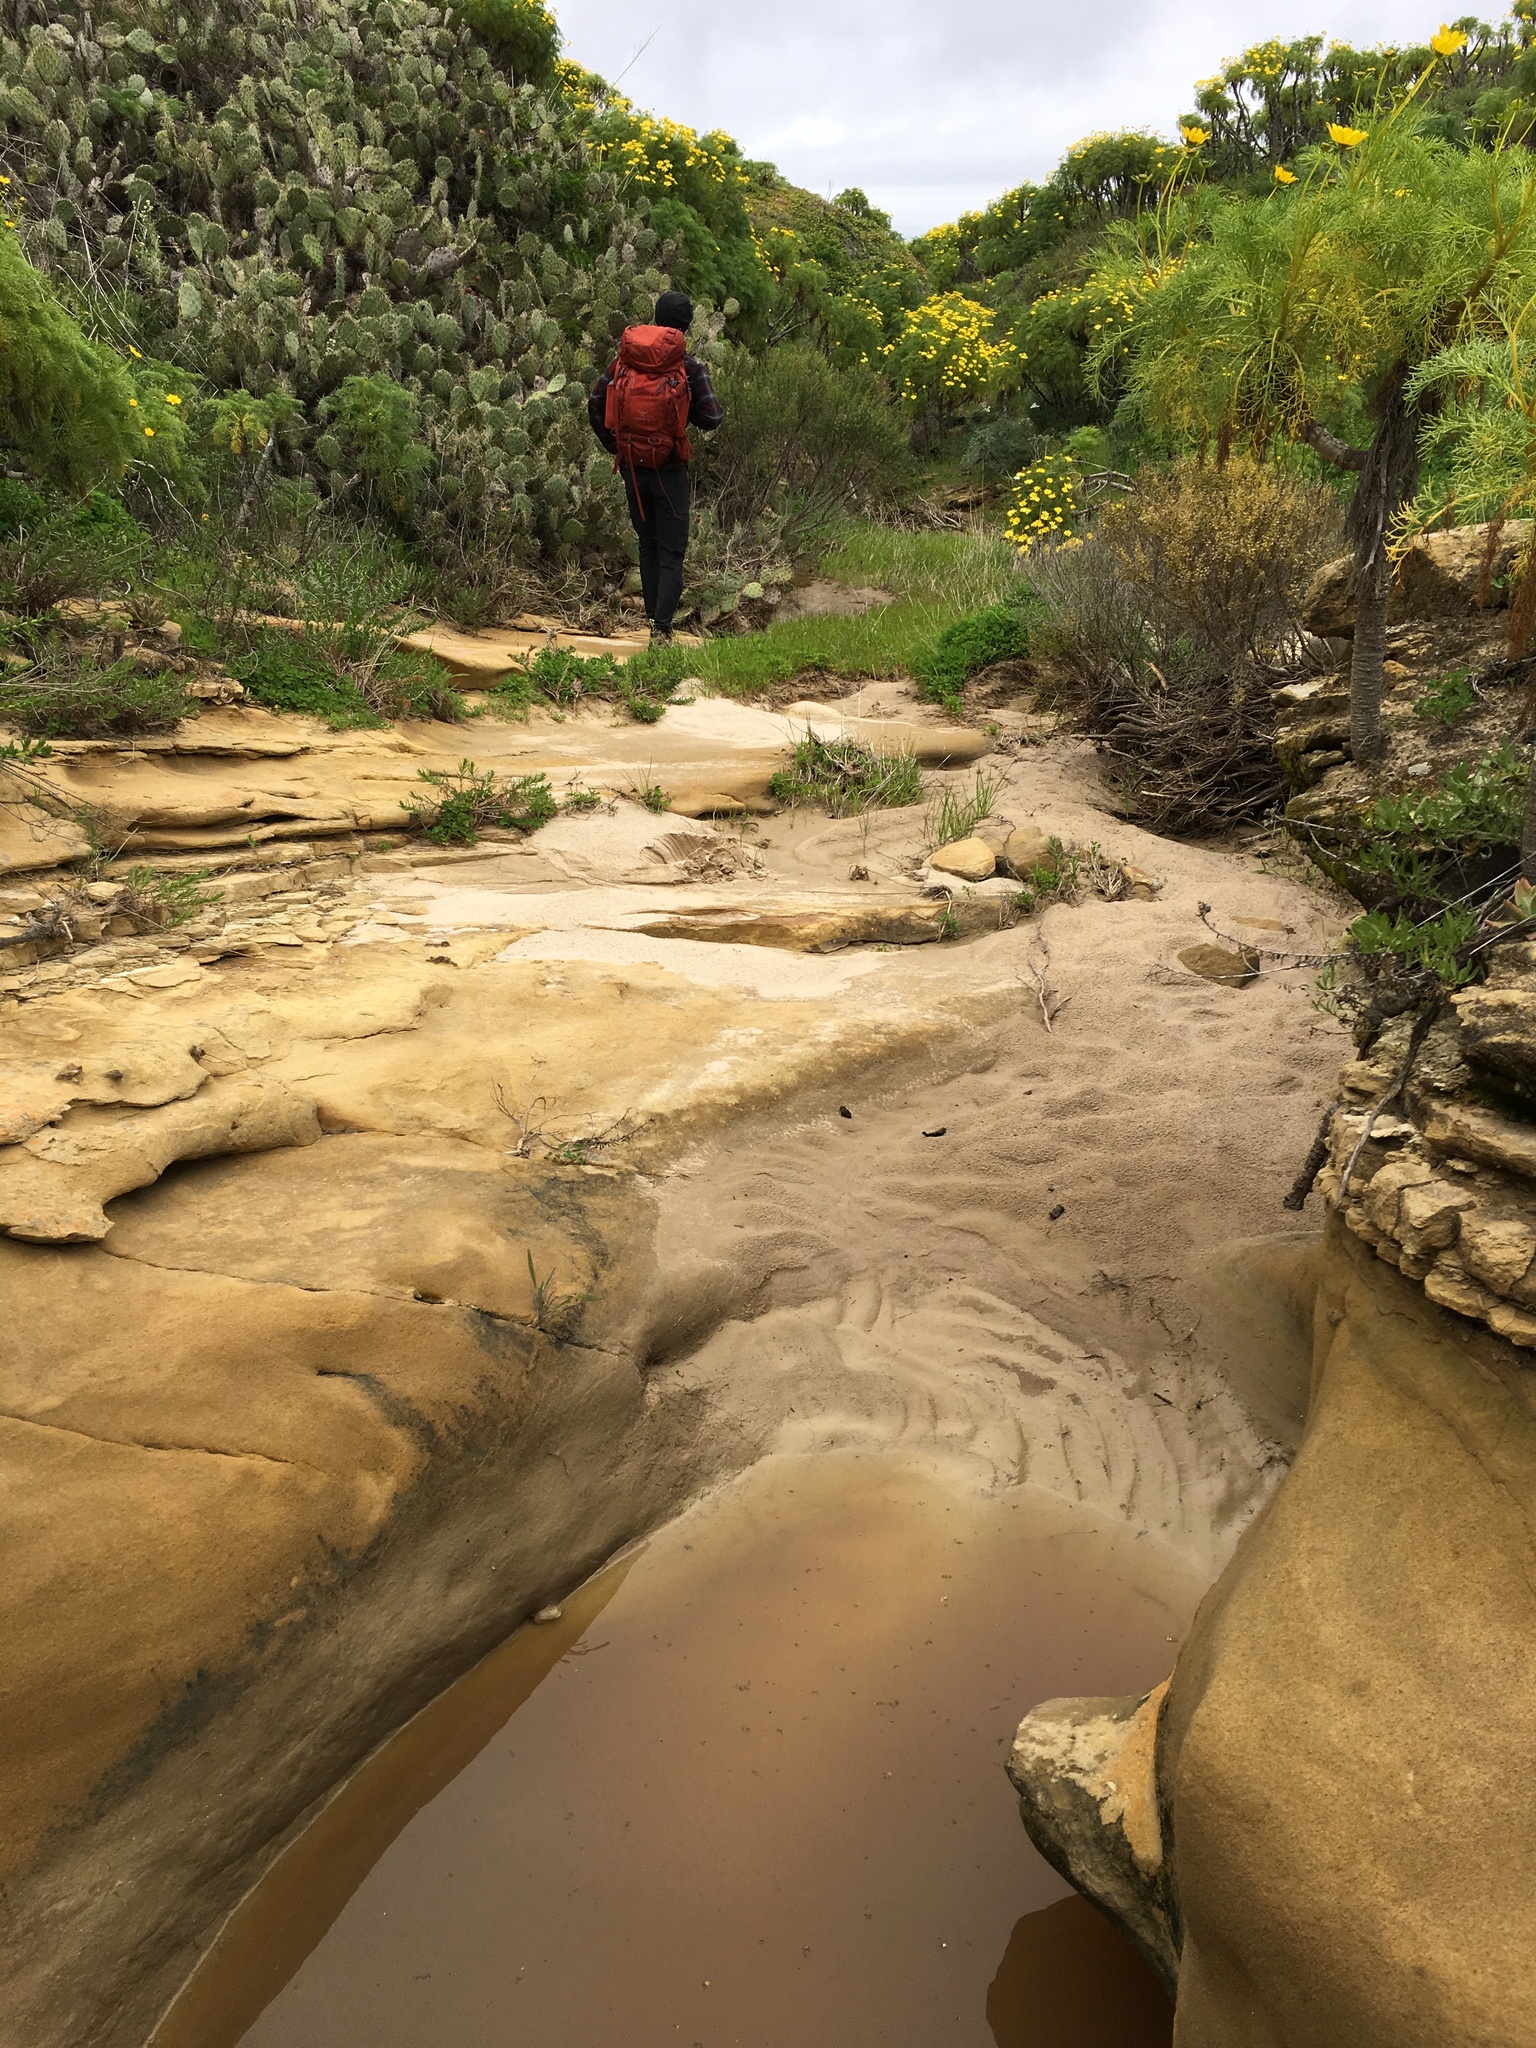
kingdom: Plantae
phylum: Tracheophyta
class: Magnoliopsida
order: Asterales
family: Asteraceae
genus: Coreopsis
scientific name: Coreopsis gigantea
